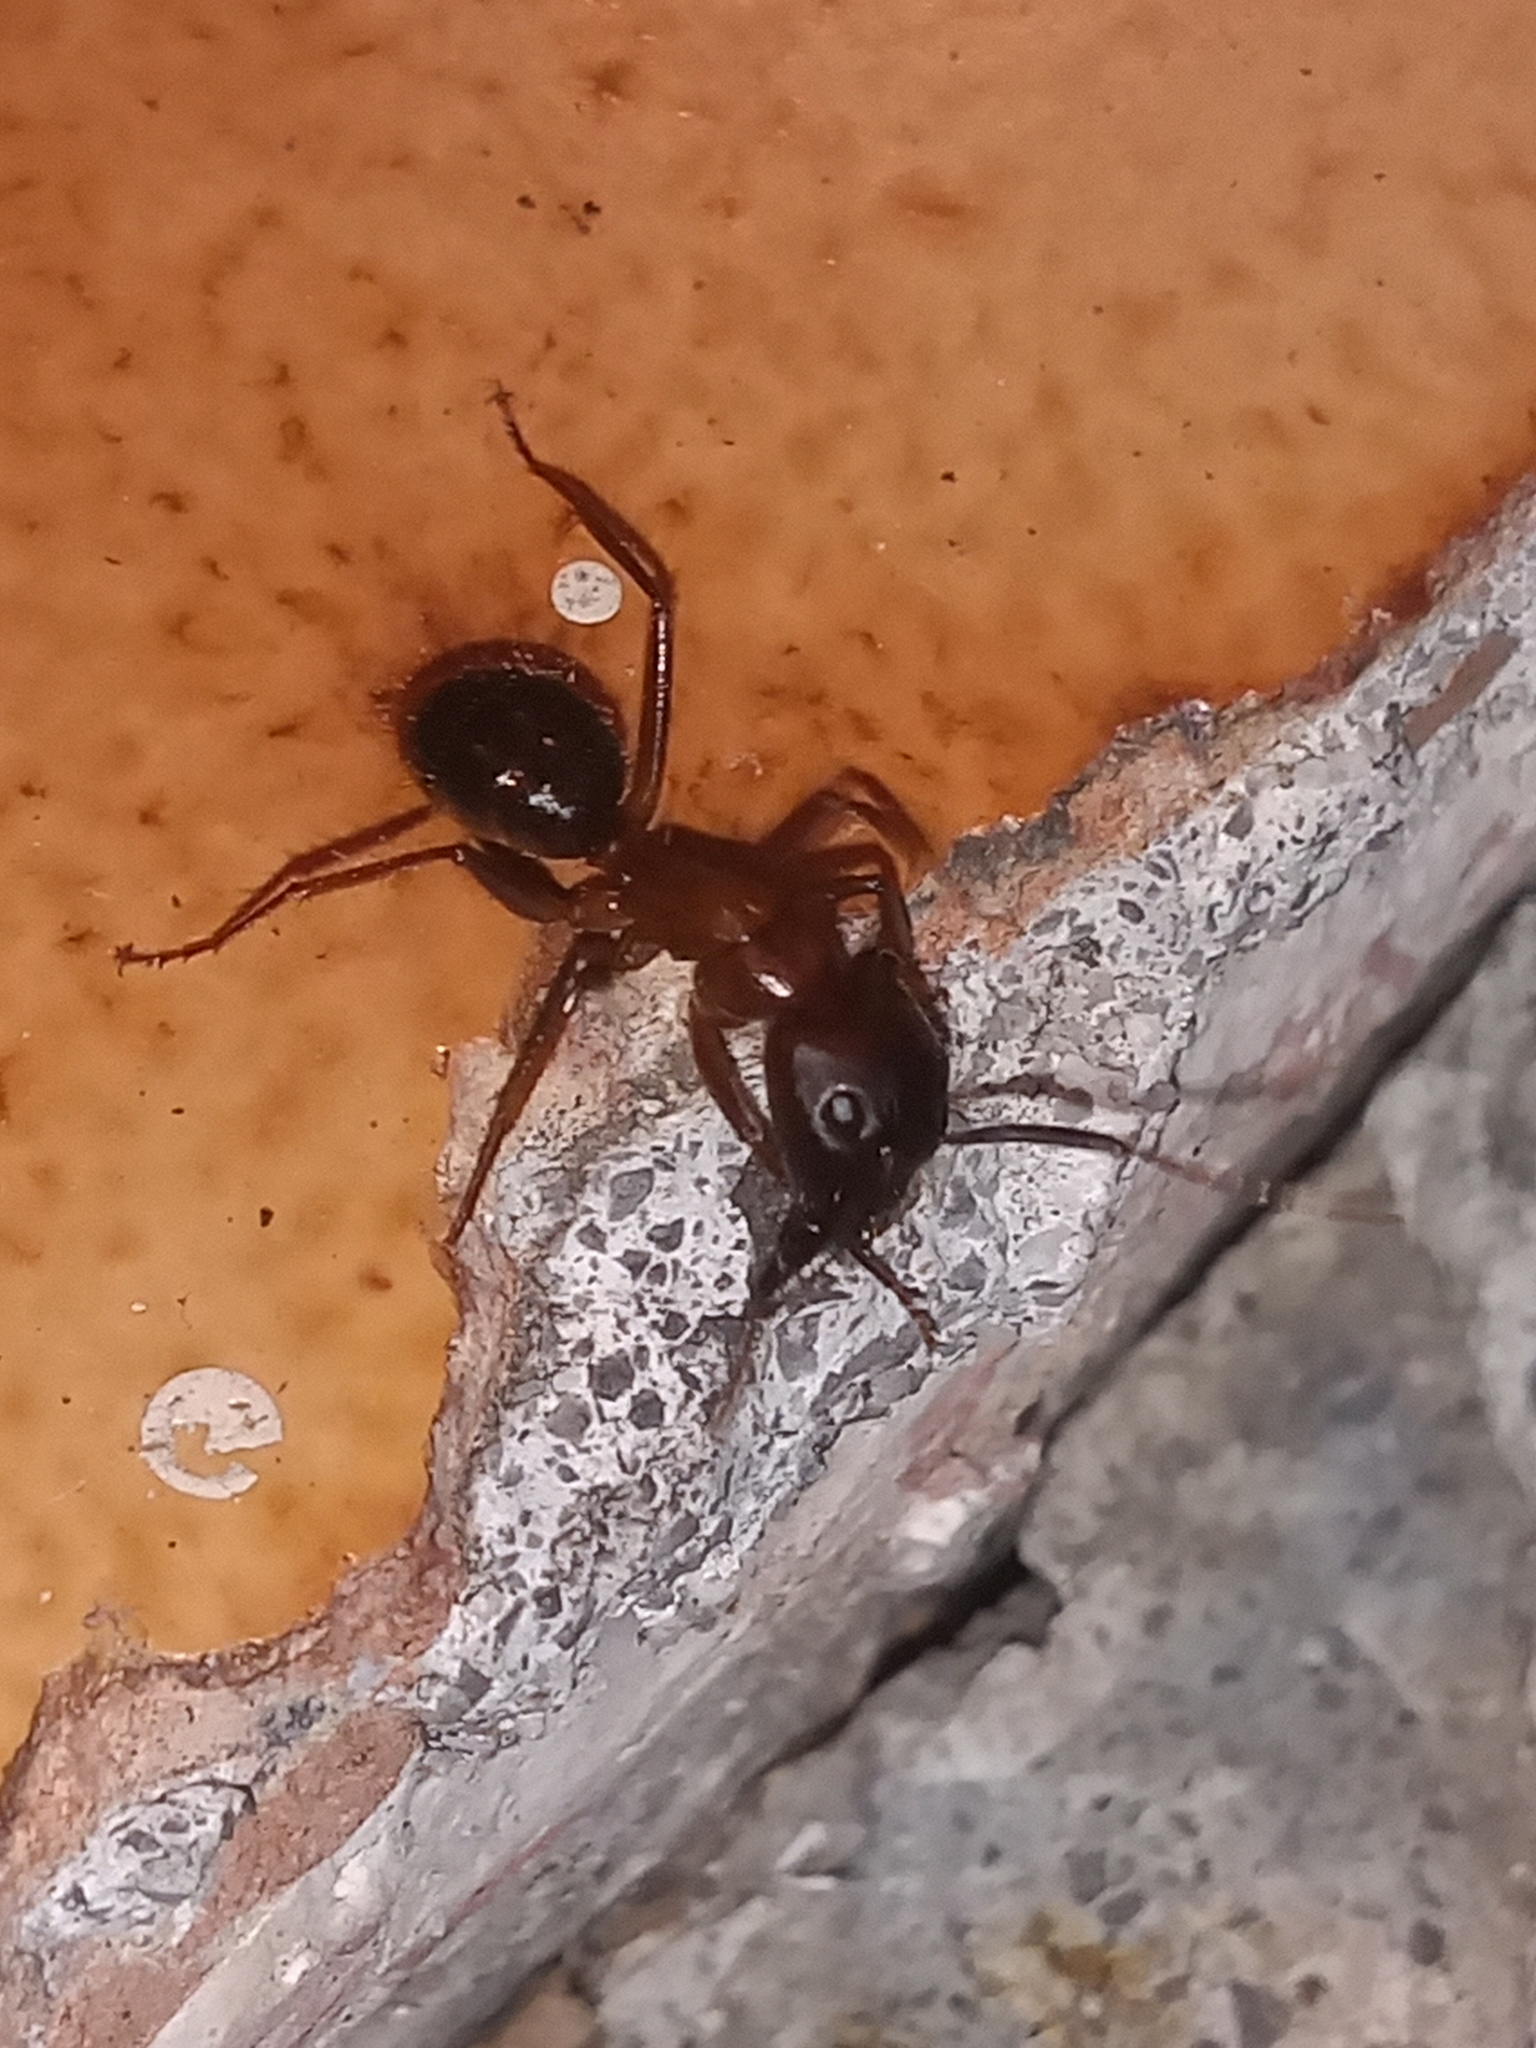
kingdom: Animalia
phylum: Arthropoda
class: Insecta
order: Hymenoptera
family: Formicidae
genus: Camponotus
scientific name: Camponotus atriceps
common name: Florida carpenter ant
